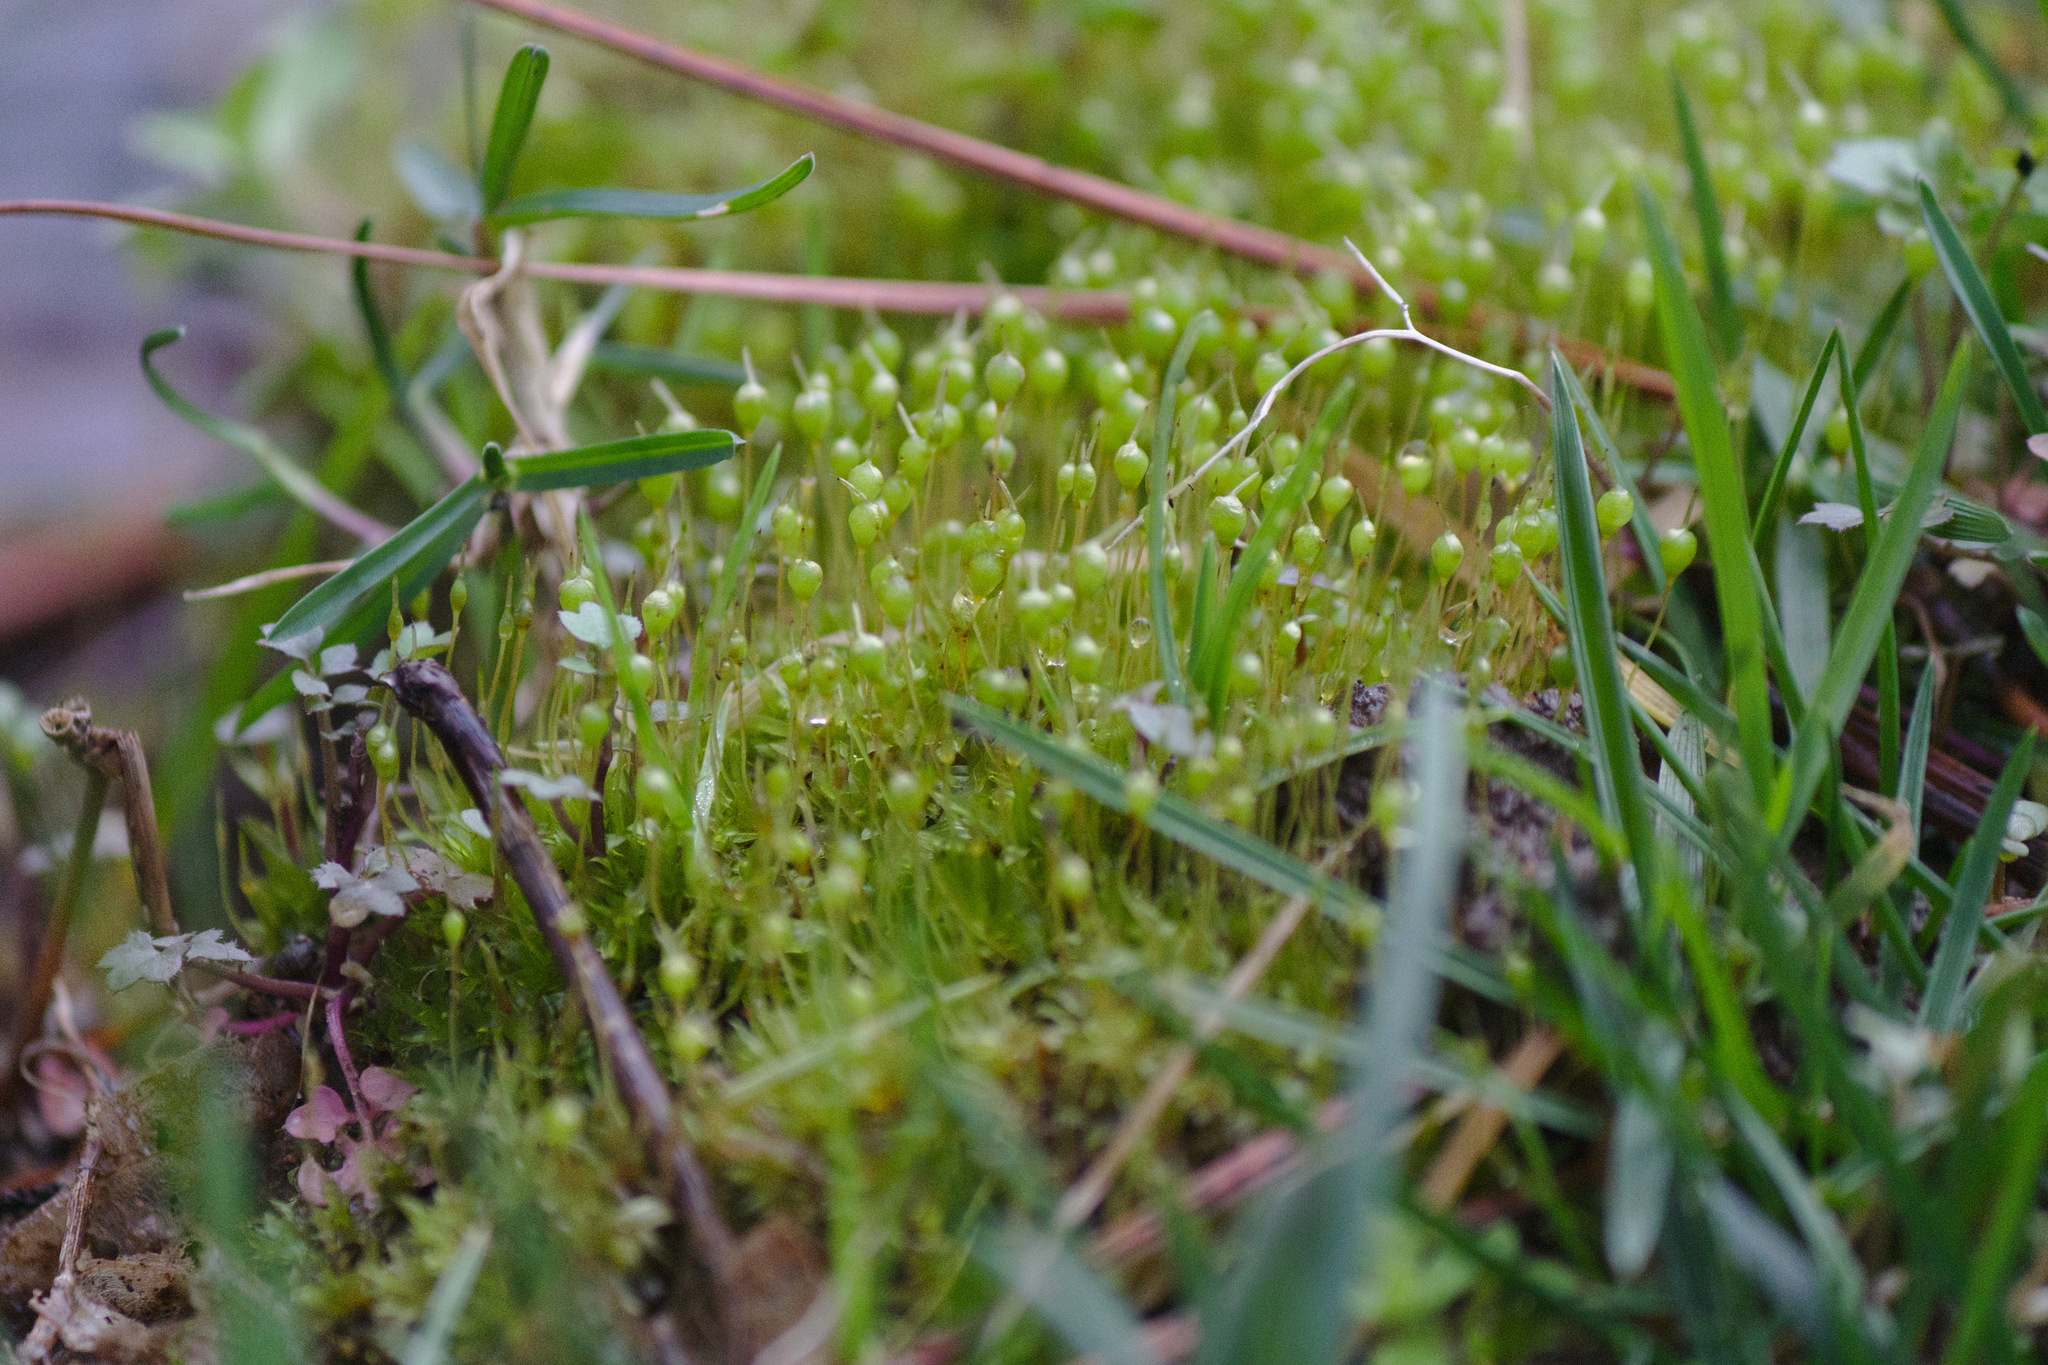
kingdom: Plantae
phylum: Bryophyta
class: Bryopsida
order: Funariales
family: Funariaceae
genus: Physcomitrium
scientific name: Physcomitrium pyriforme
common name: Common bladder-moss
